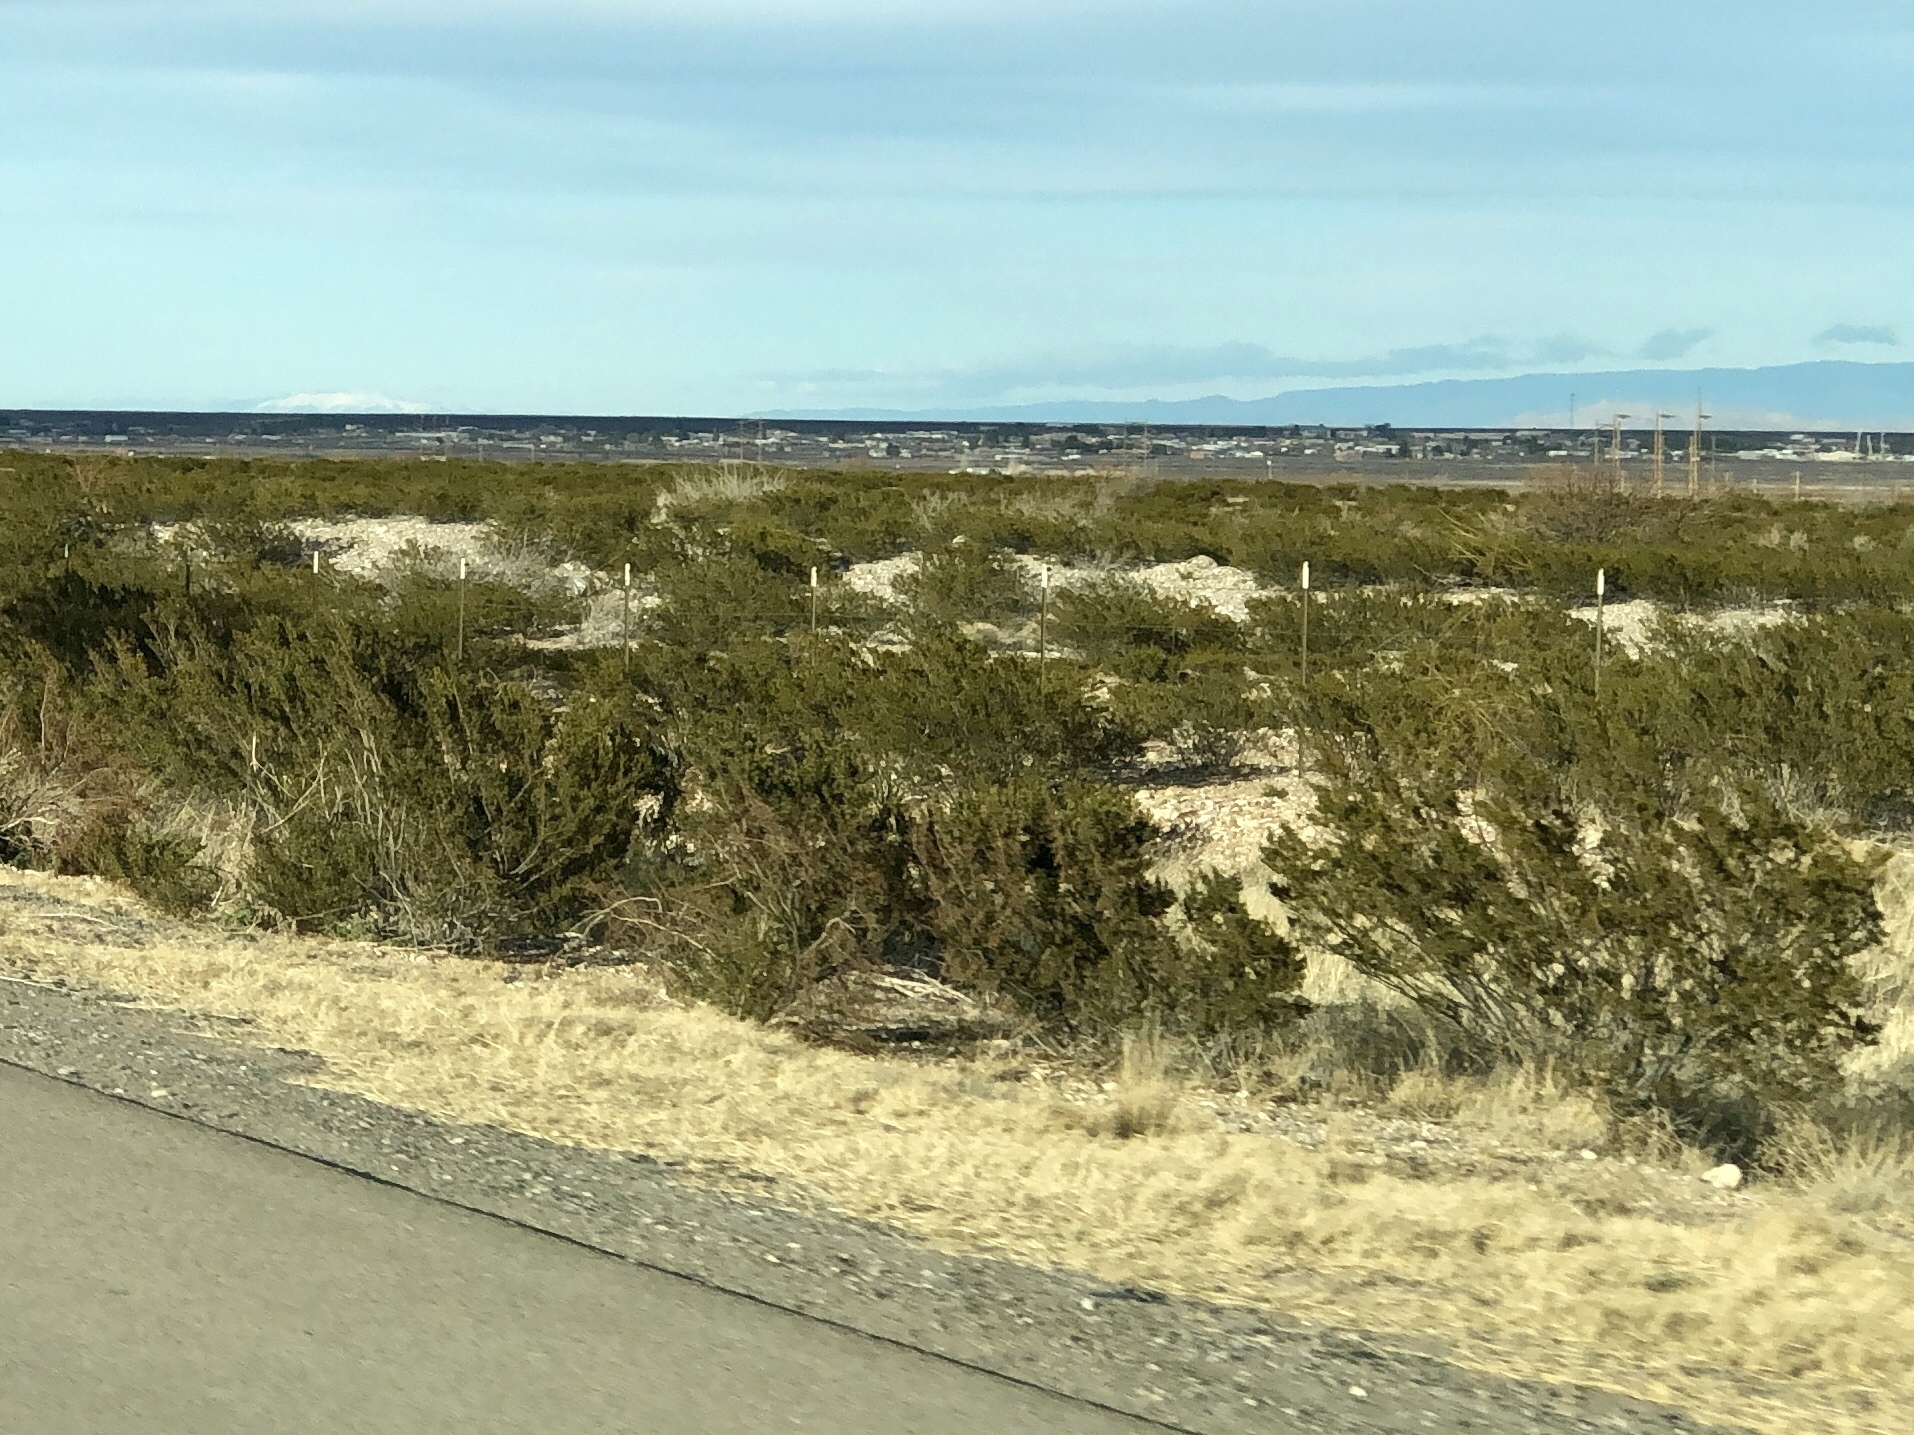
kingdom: Plantae
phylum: Tracheophyta
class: Magnoliopsida
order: Zygophyllales
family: Zygophyllaceae
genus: Larrea
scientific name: Larrea tridentata
